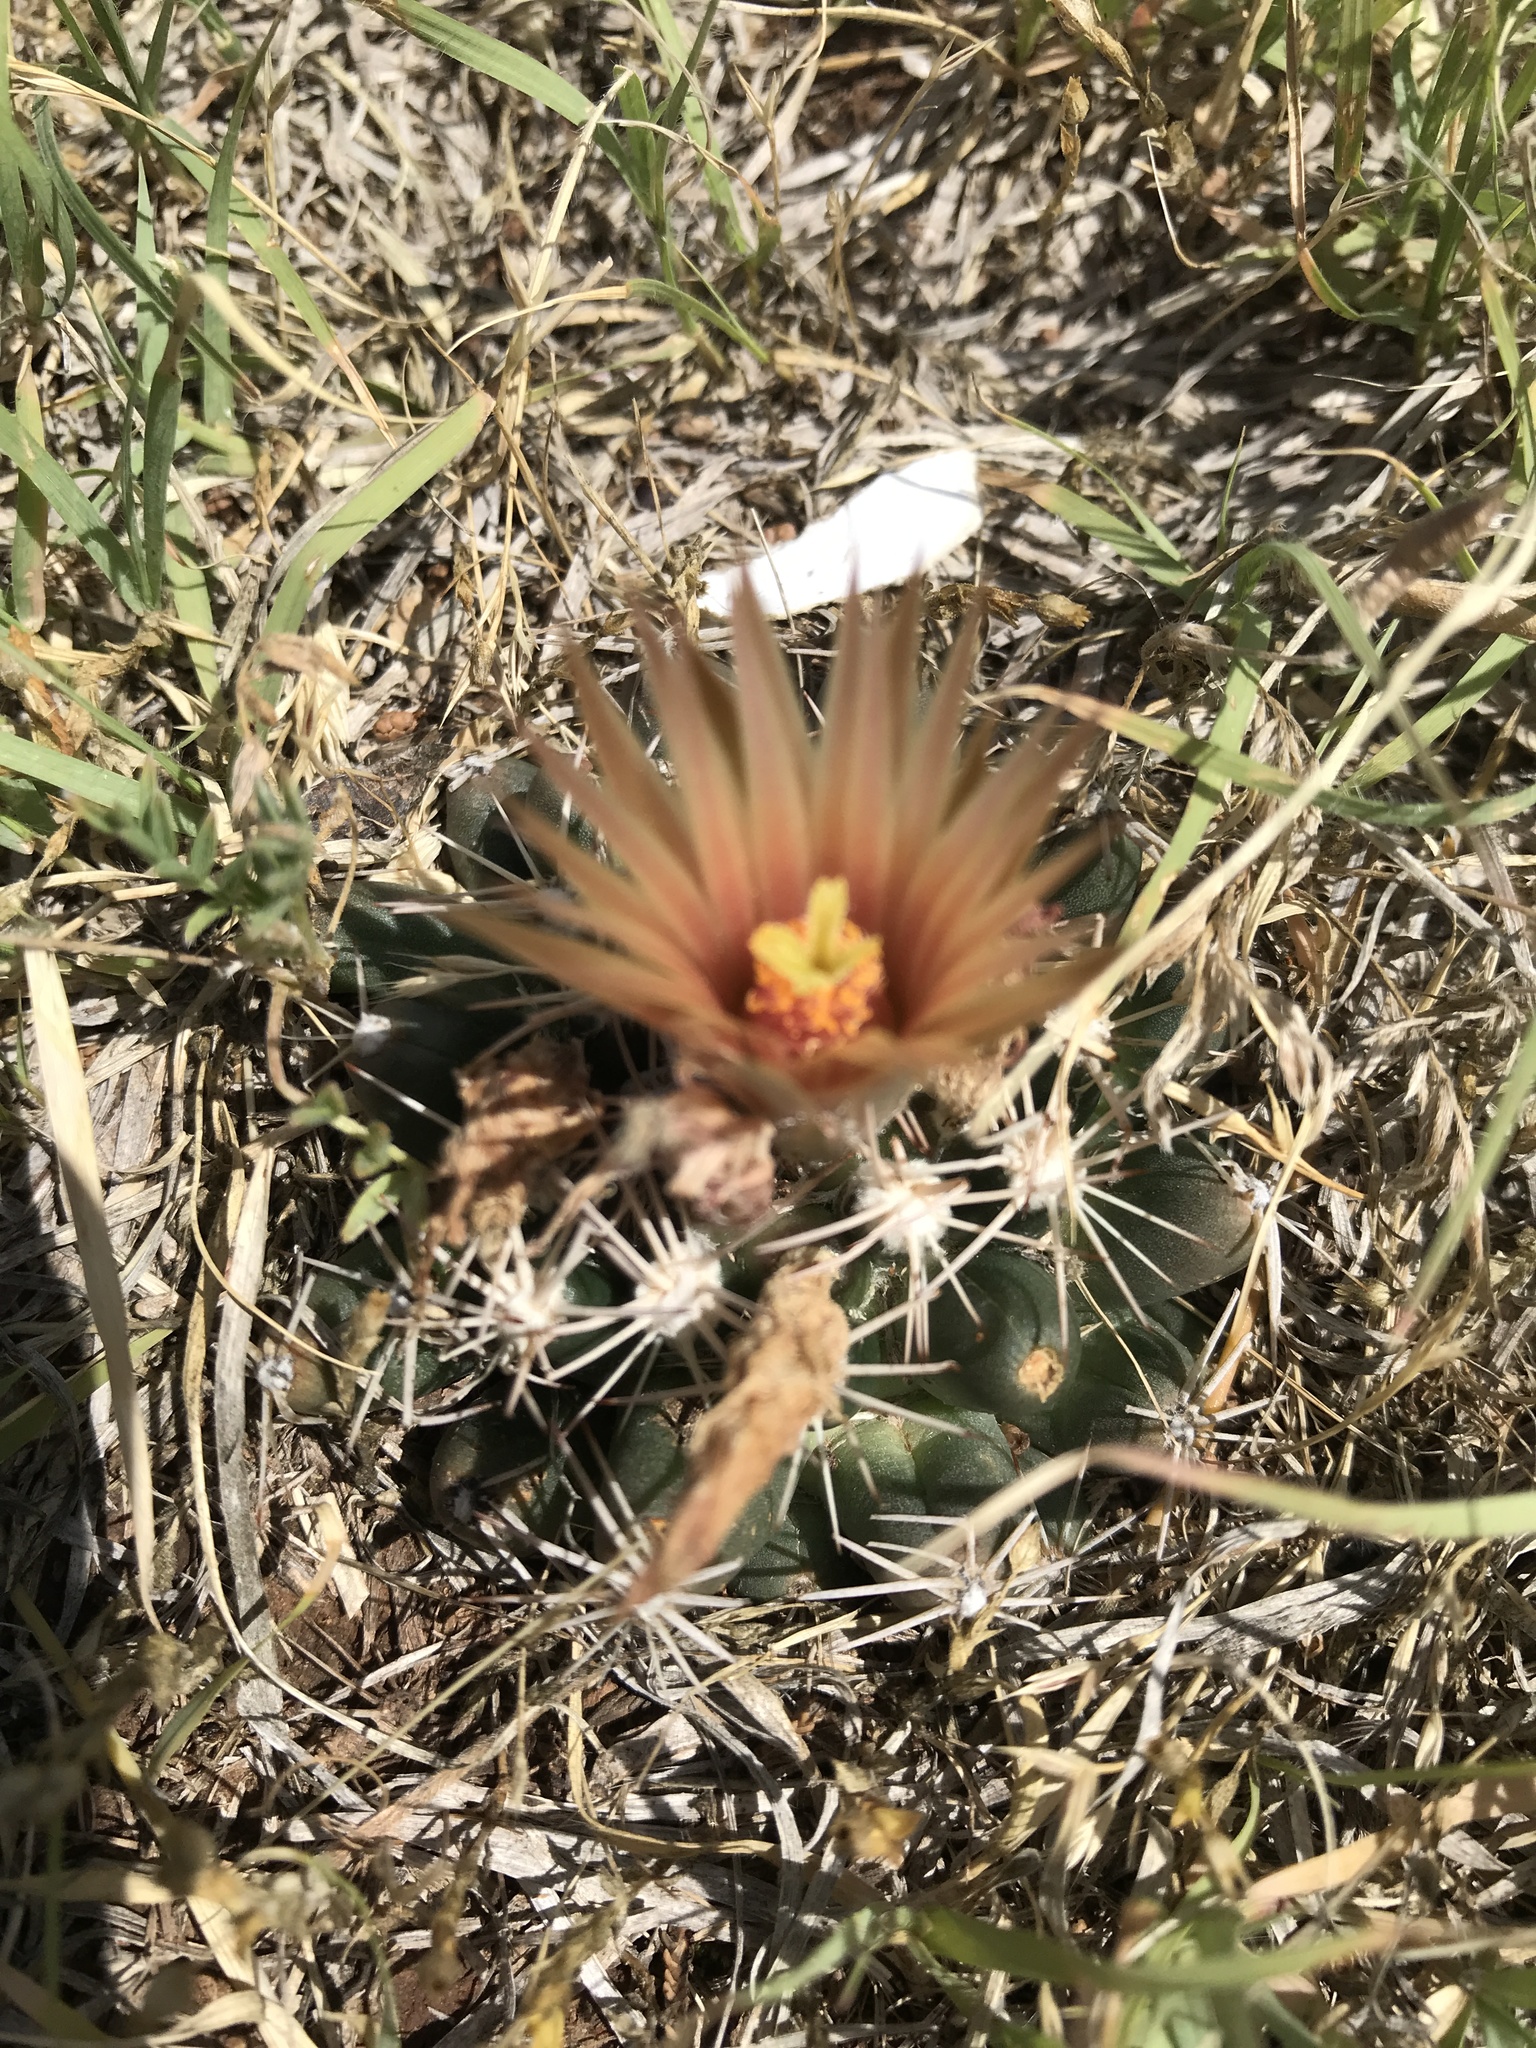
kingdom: Plantae
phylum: Tracheophyta
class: Magnoliopsida
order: Caryophyllales
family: Cactaceae
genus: Pelecyphora
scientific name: Pelecyphora missouriensis
